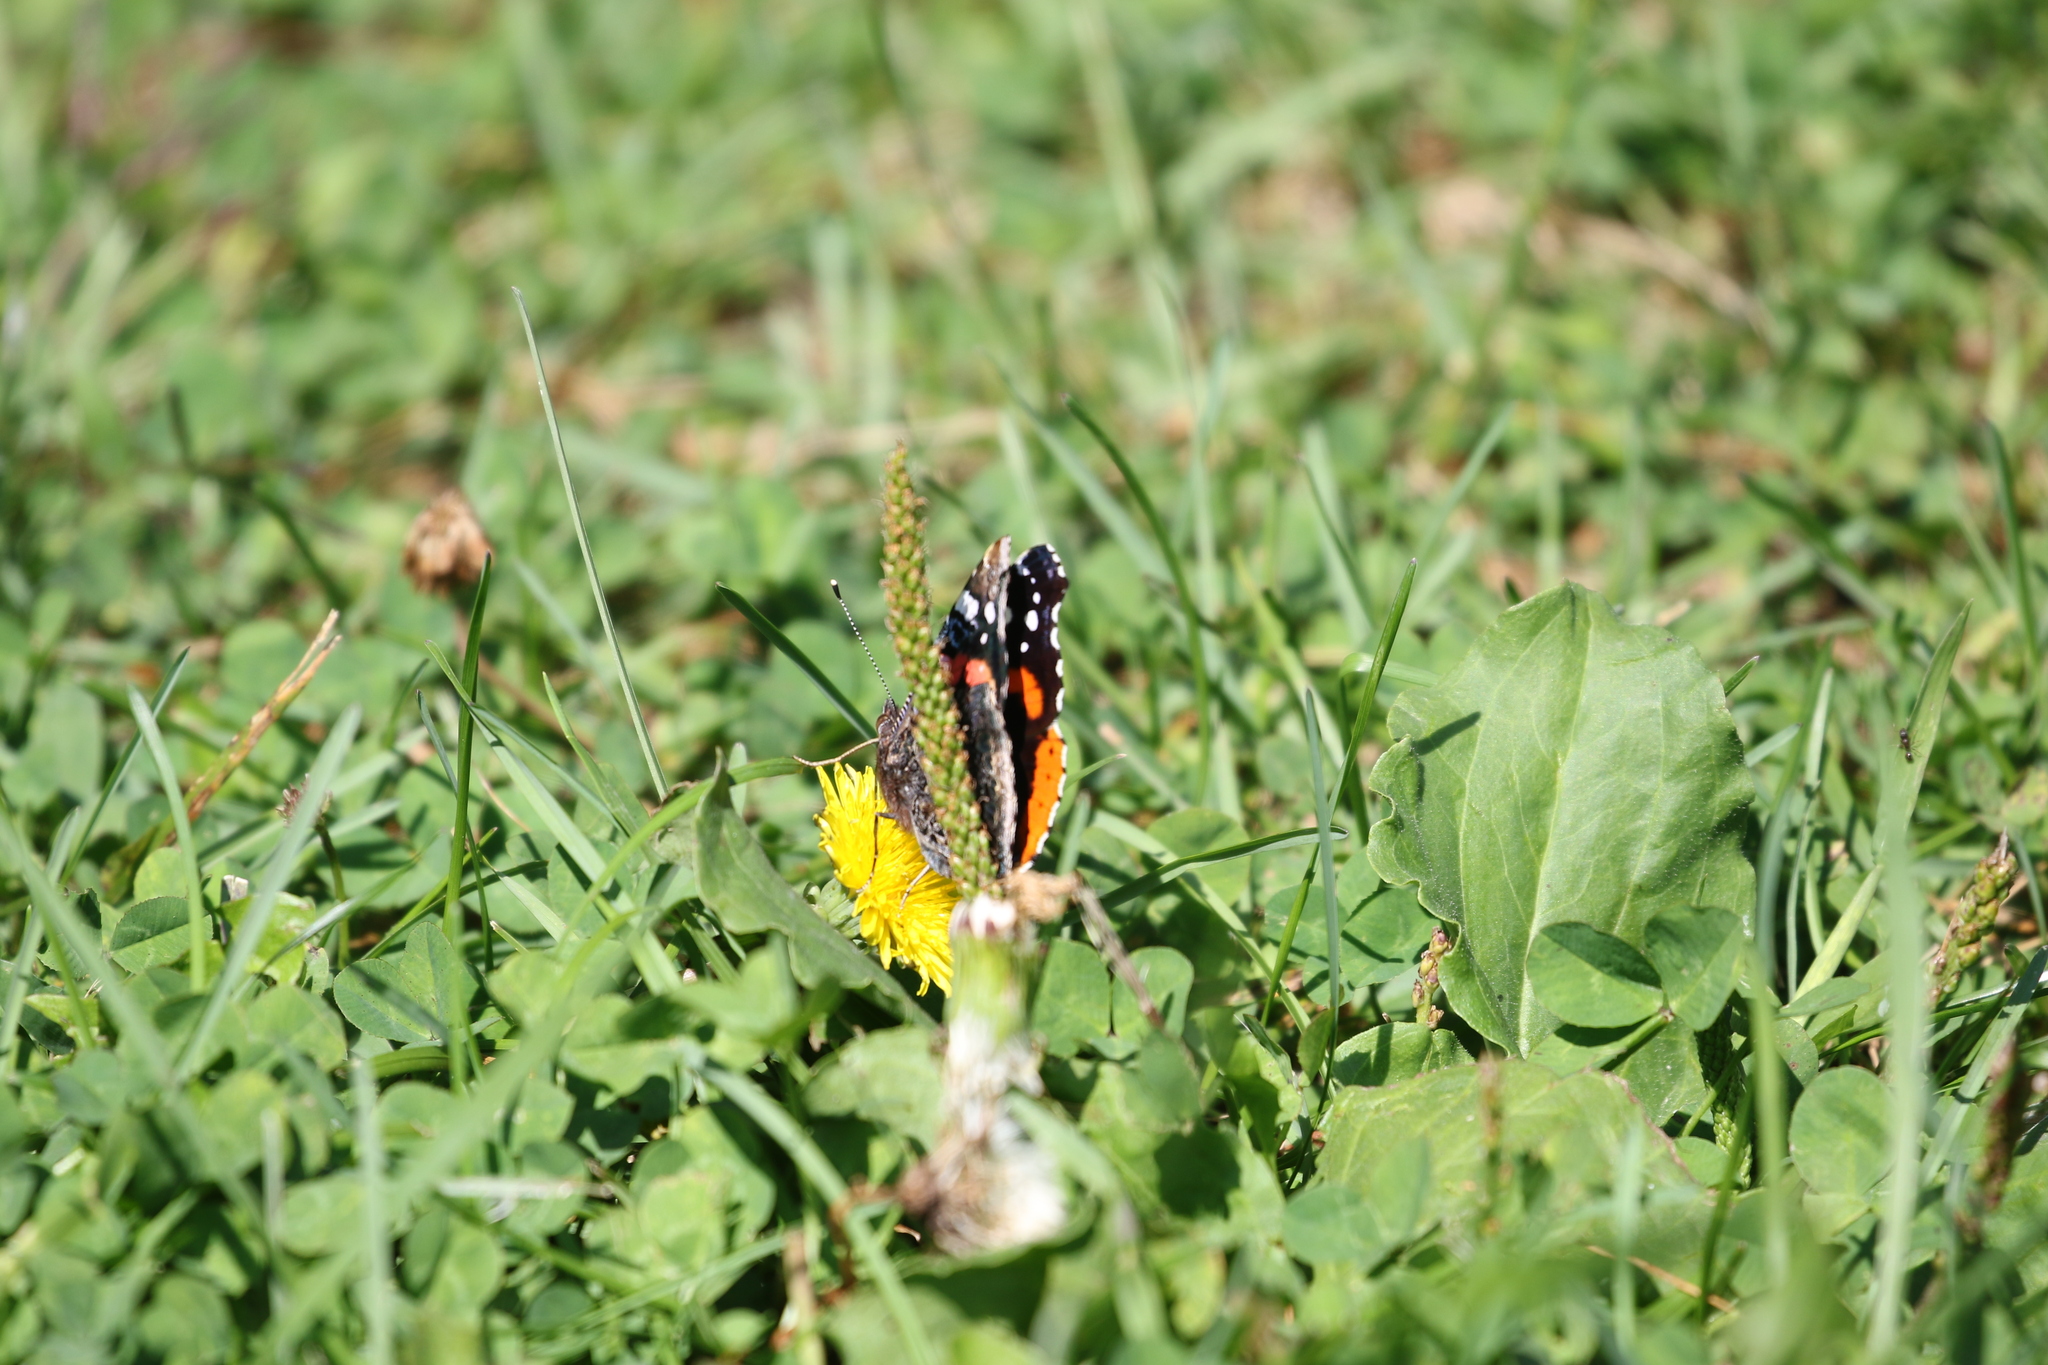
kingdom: Animalia
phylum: Arthropoda
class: Insecta
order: Lepidoptera
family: Nymphalidae
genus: Vanessa
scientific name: Vanessa atalanta
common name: Red admiral
